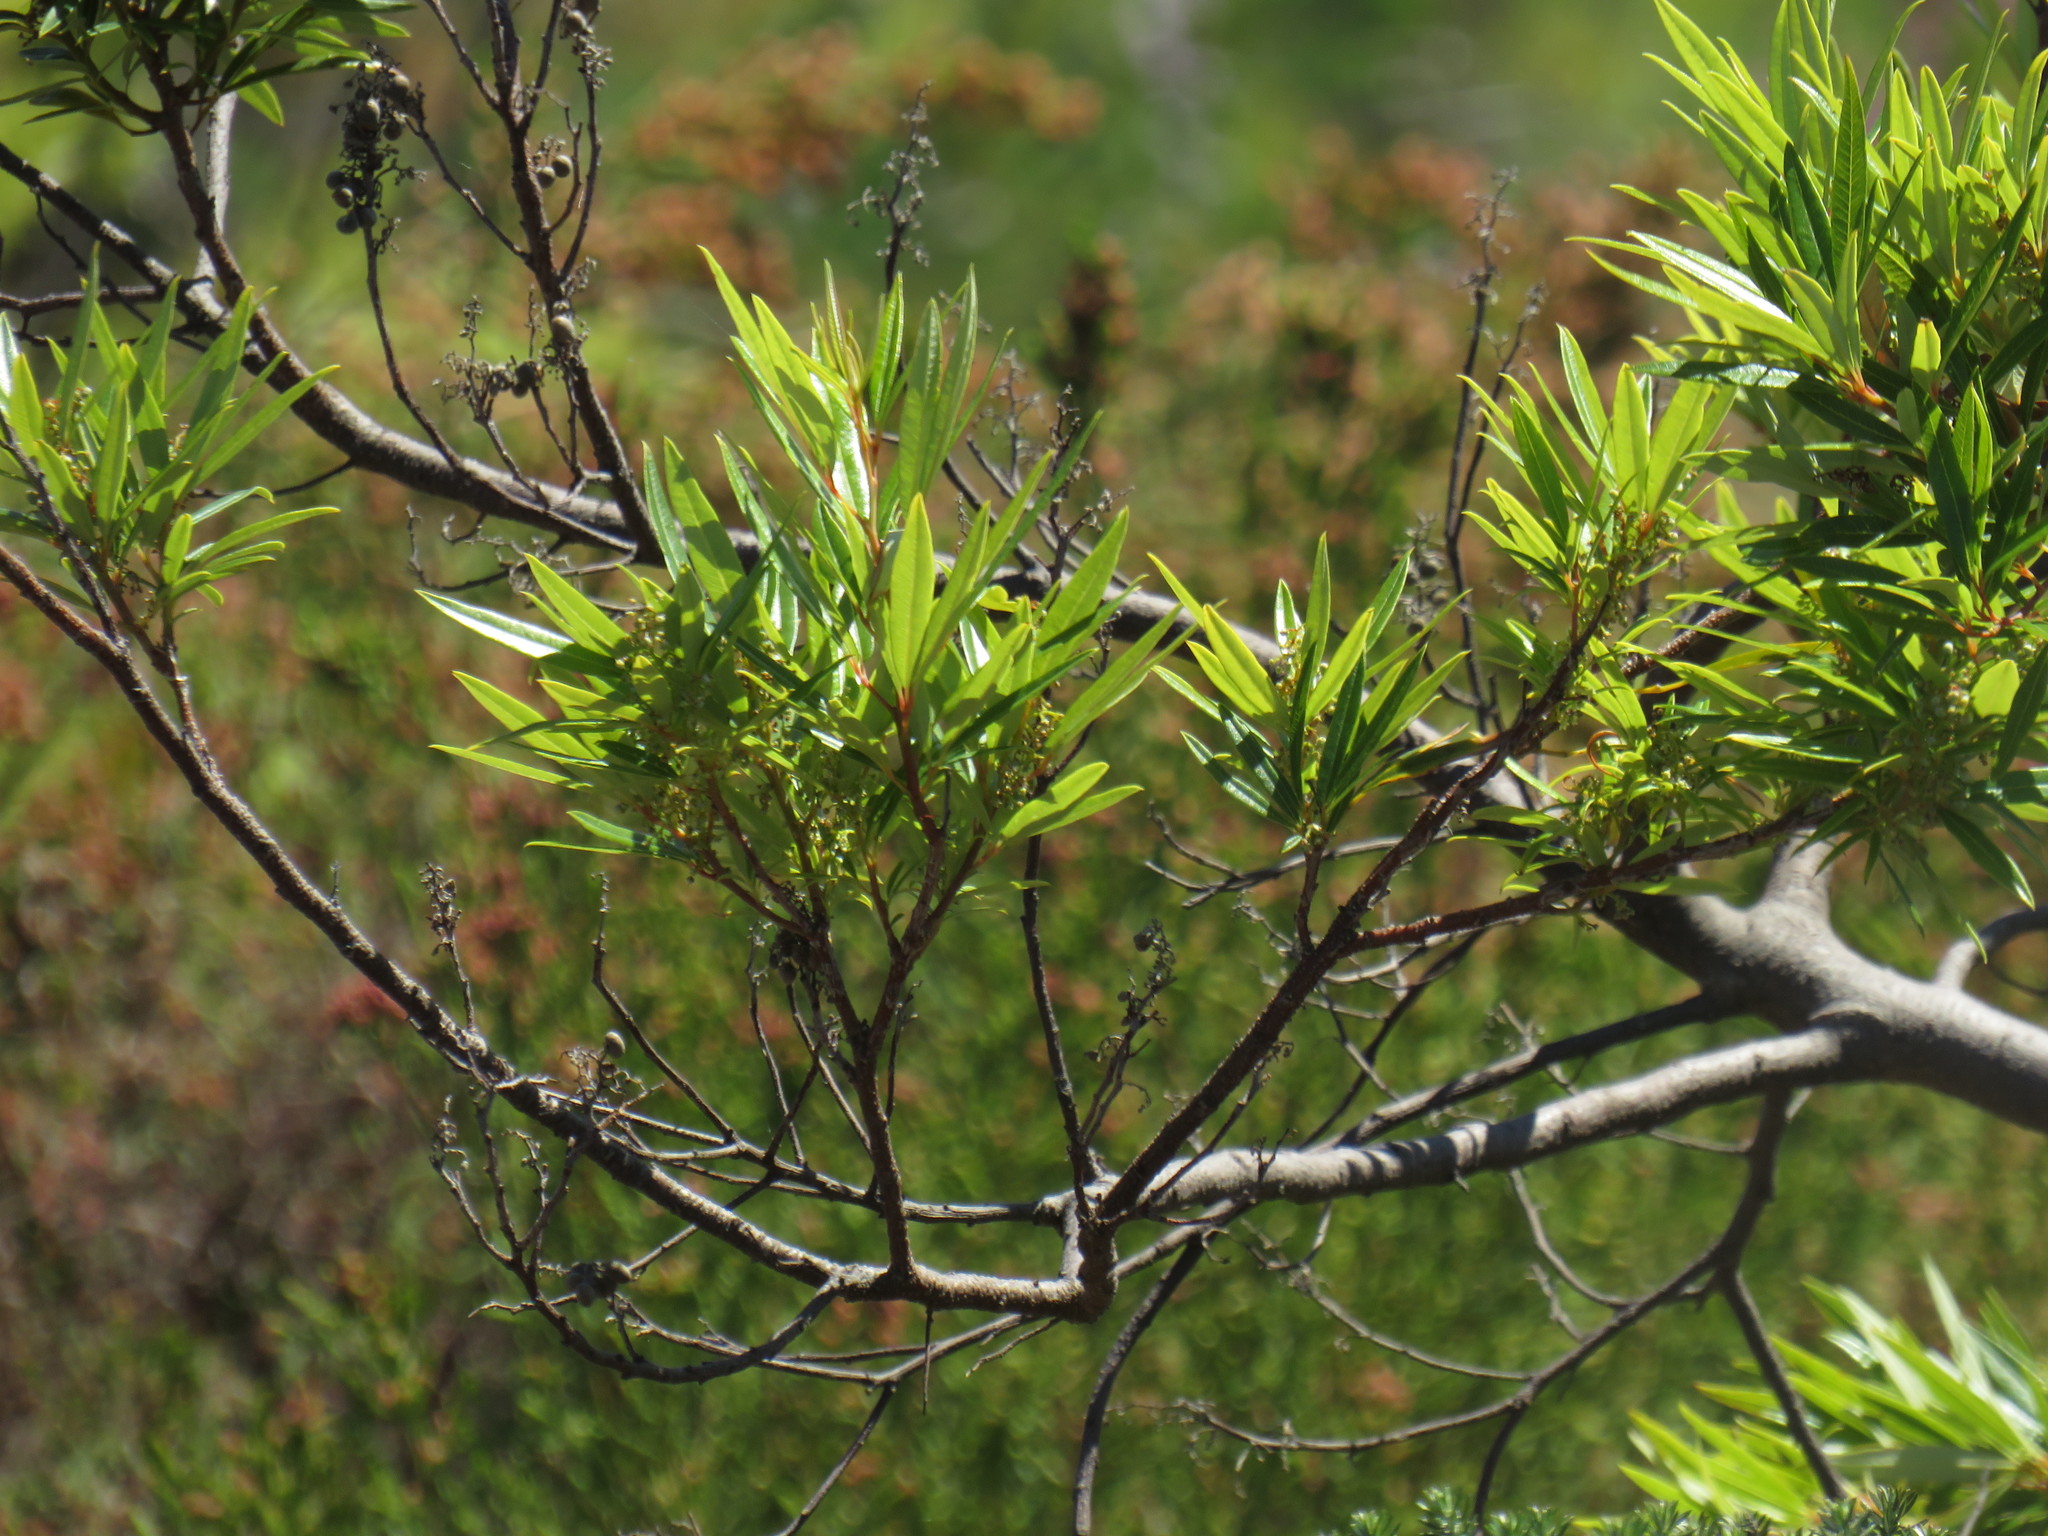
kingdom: Plantae
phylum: Tracheophyta
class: Magnoliopsida
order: Sapindales
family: Anacardiaceae
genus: Searsia
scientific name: Searsia angustifolia
